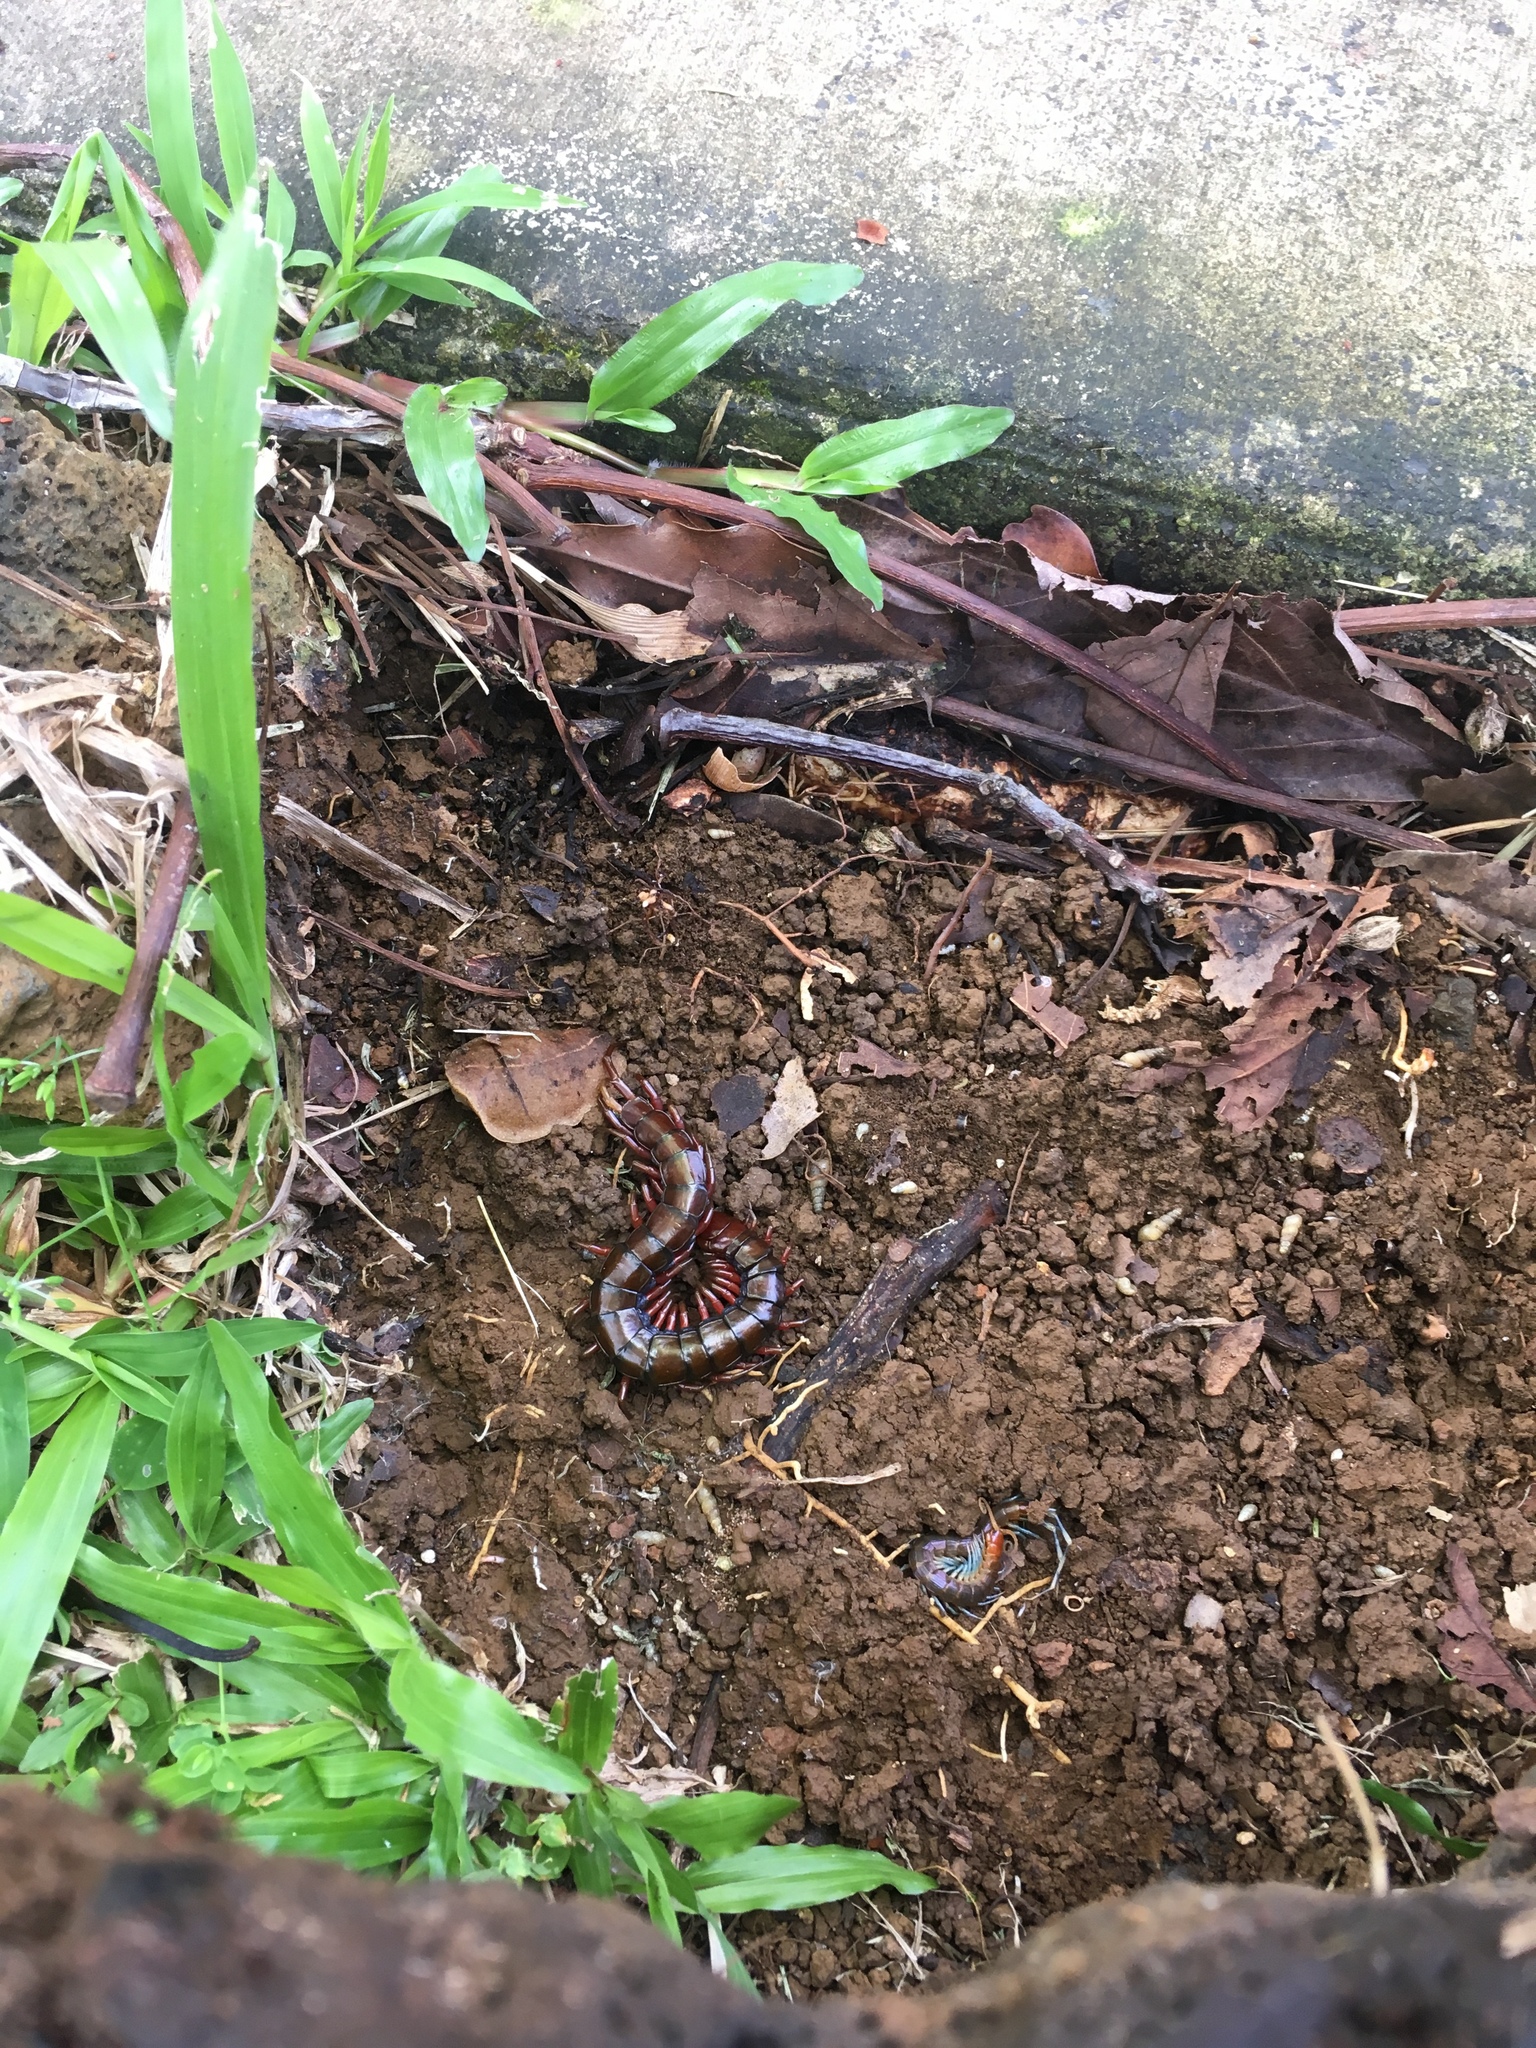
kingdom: Animalia
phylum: Arthropoda
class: Chilopoda
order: Scolopendromorpha
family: Scolopendridae
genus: Scolopendra
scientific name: Scolopendra subspinipes
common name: Centipede
